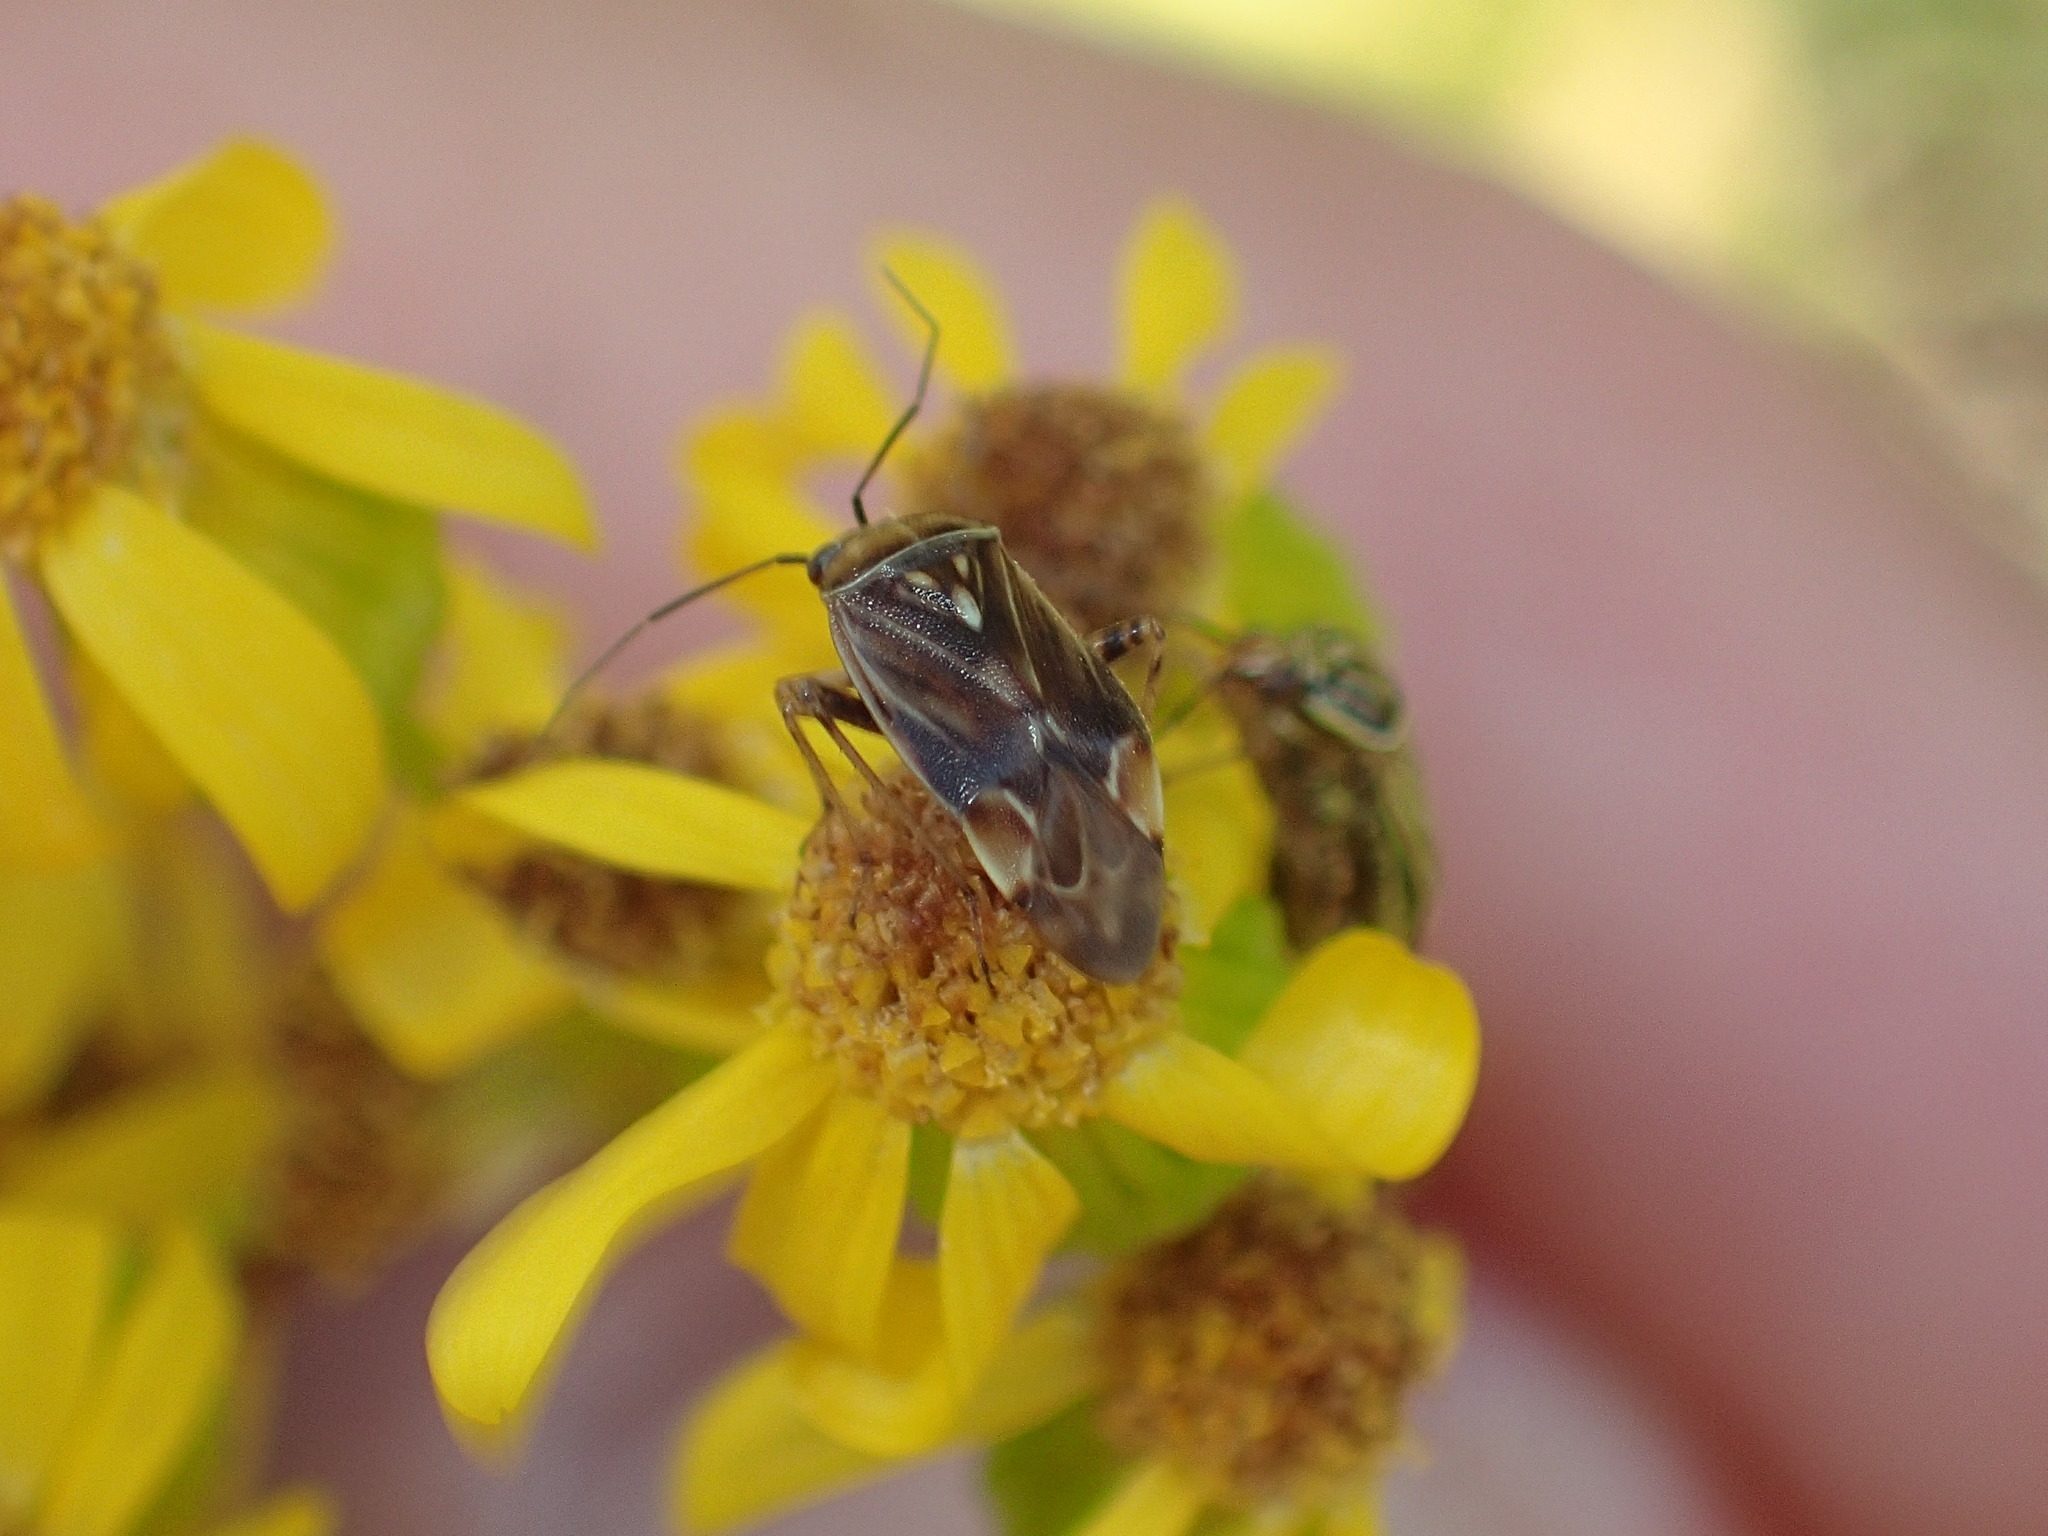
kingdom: Animalia
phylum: Arthropoda
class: Insecta
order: Hemiptera
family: Miridae
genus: Lygus
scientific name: Lygus lineolaris
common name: North american tarnished plant bug
